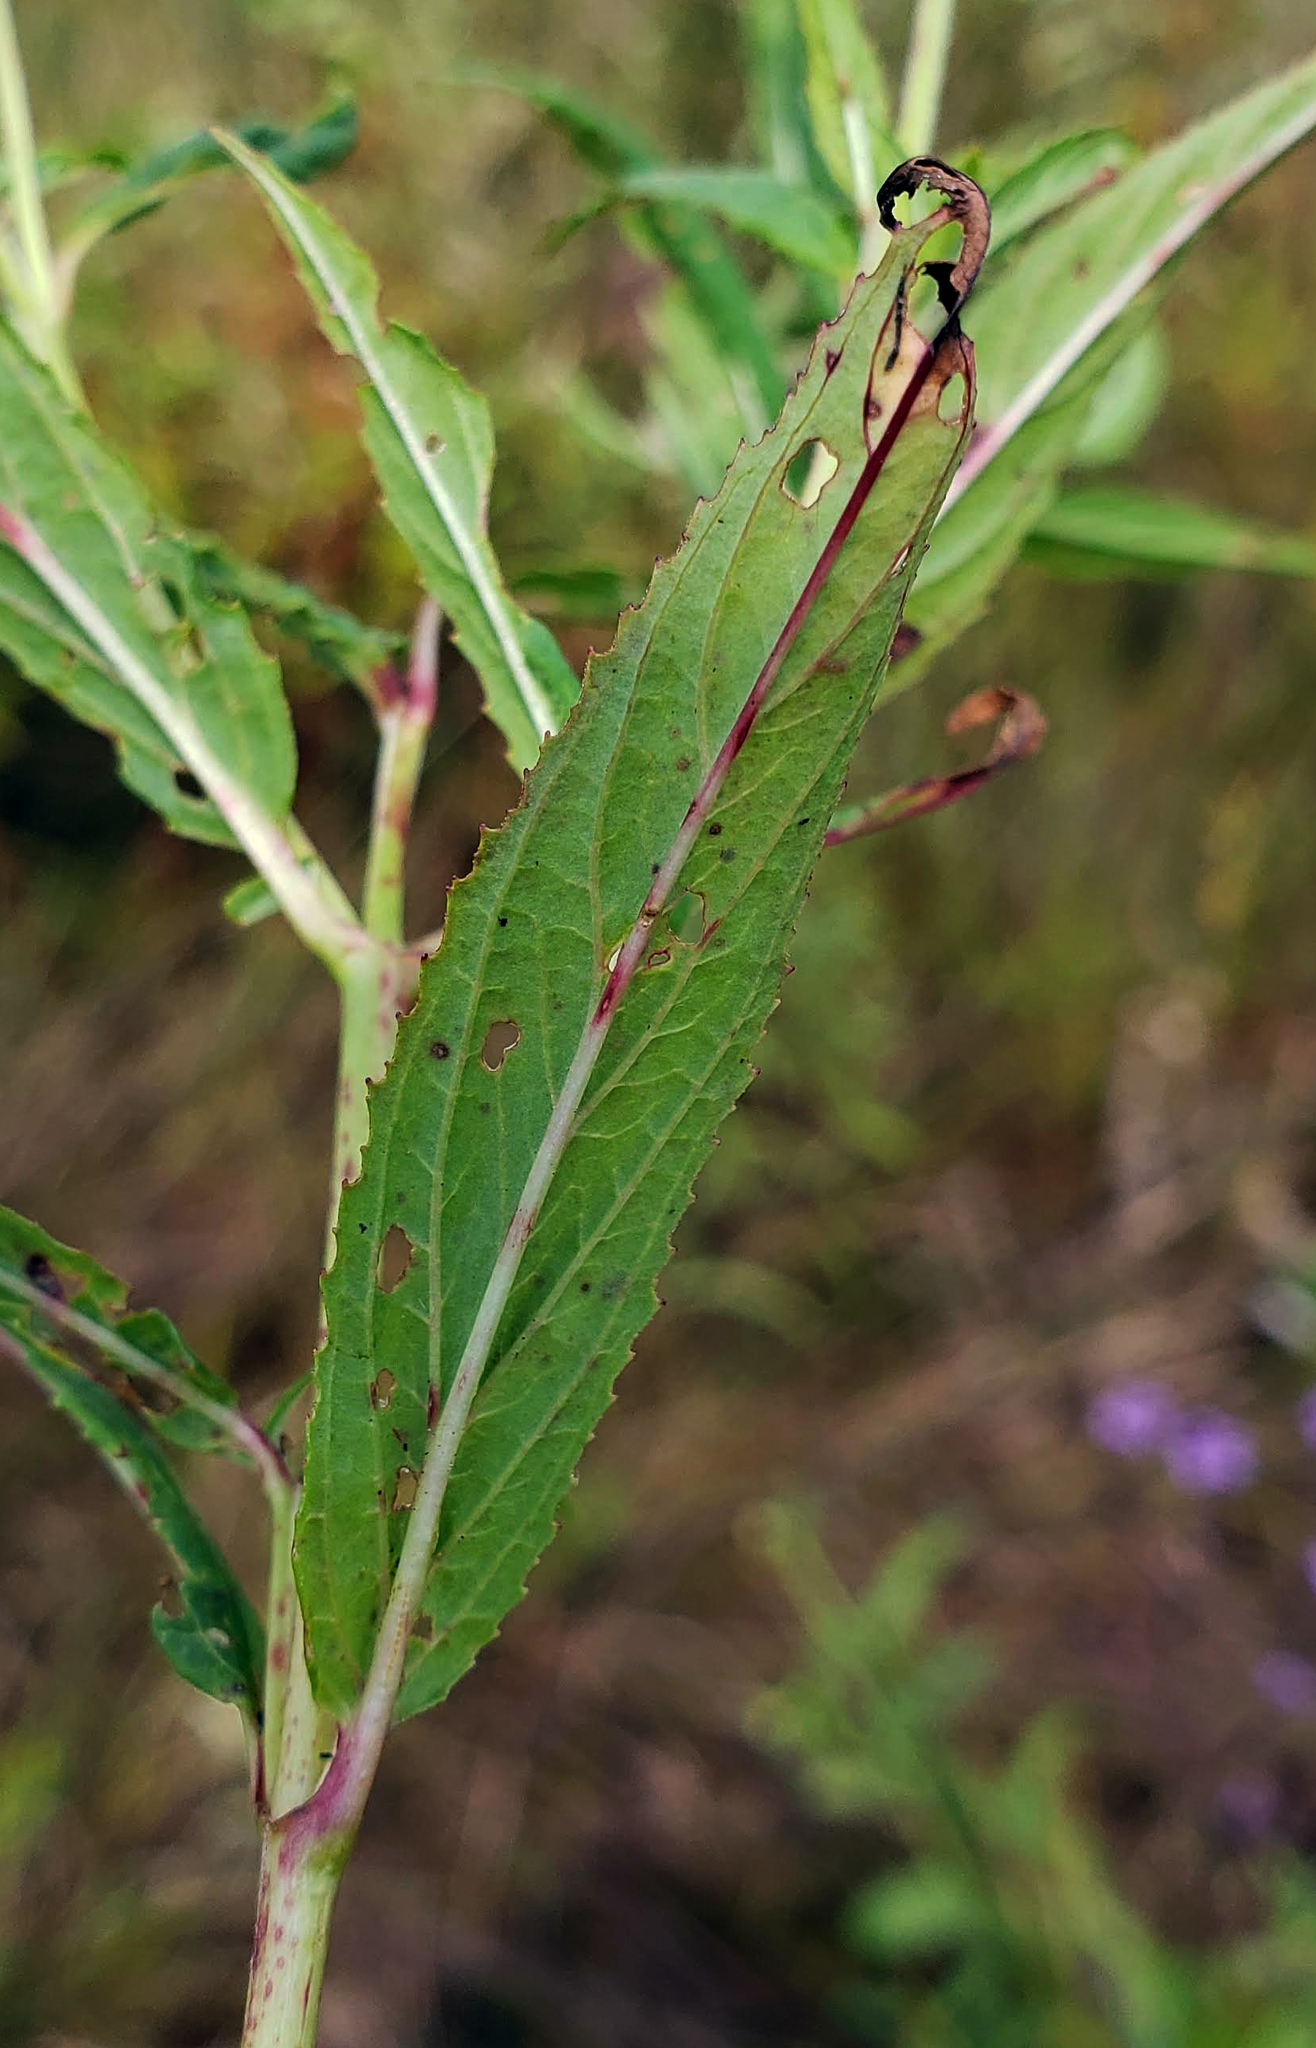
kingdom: Plantae
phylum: Tracheophyta
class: Magnoliopsida
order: Myrtales
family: Onagraceae
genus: Epilobium
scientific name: Epilobium coloratum
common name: Bronze willowherb
